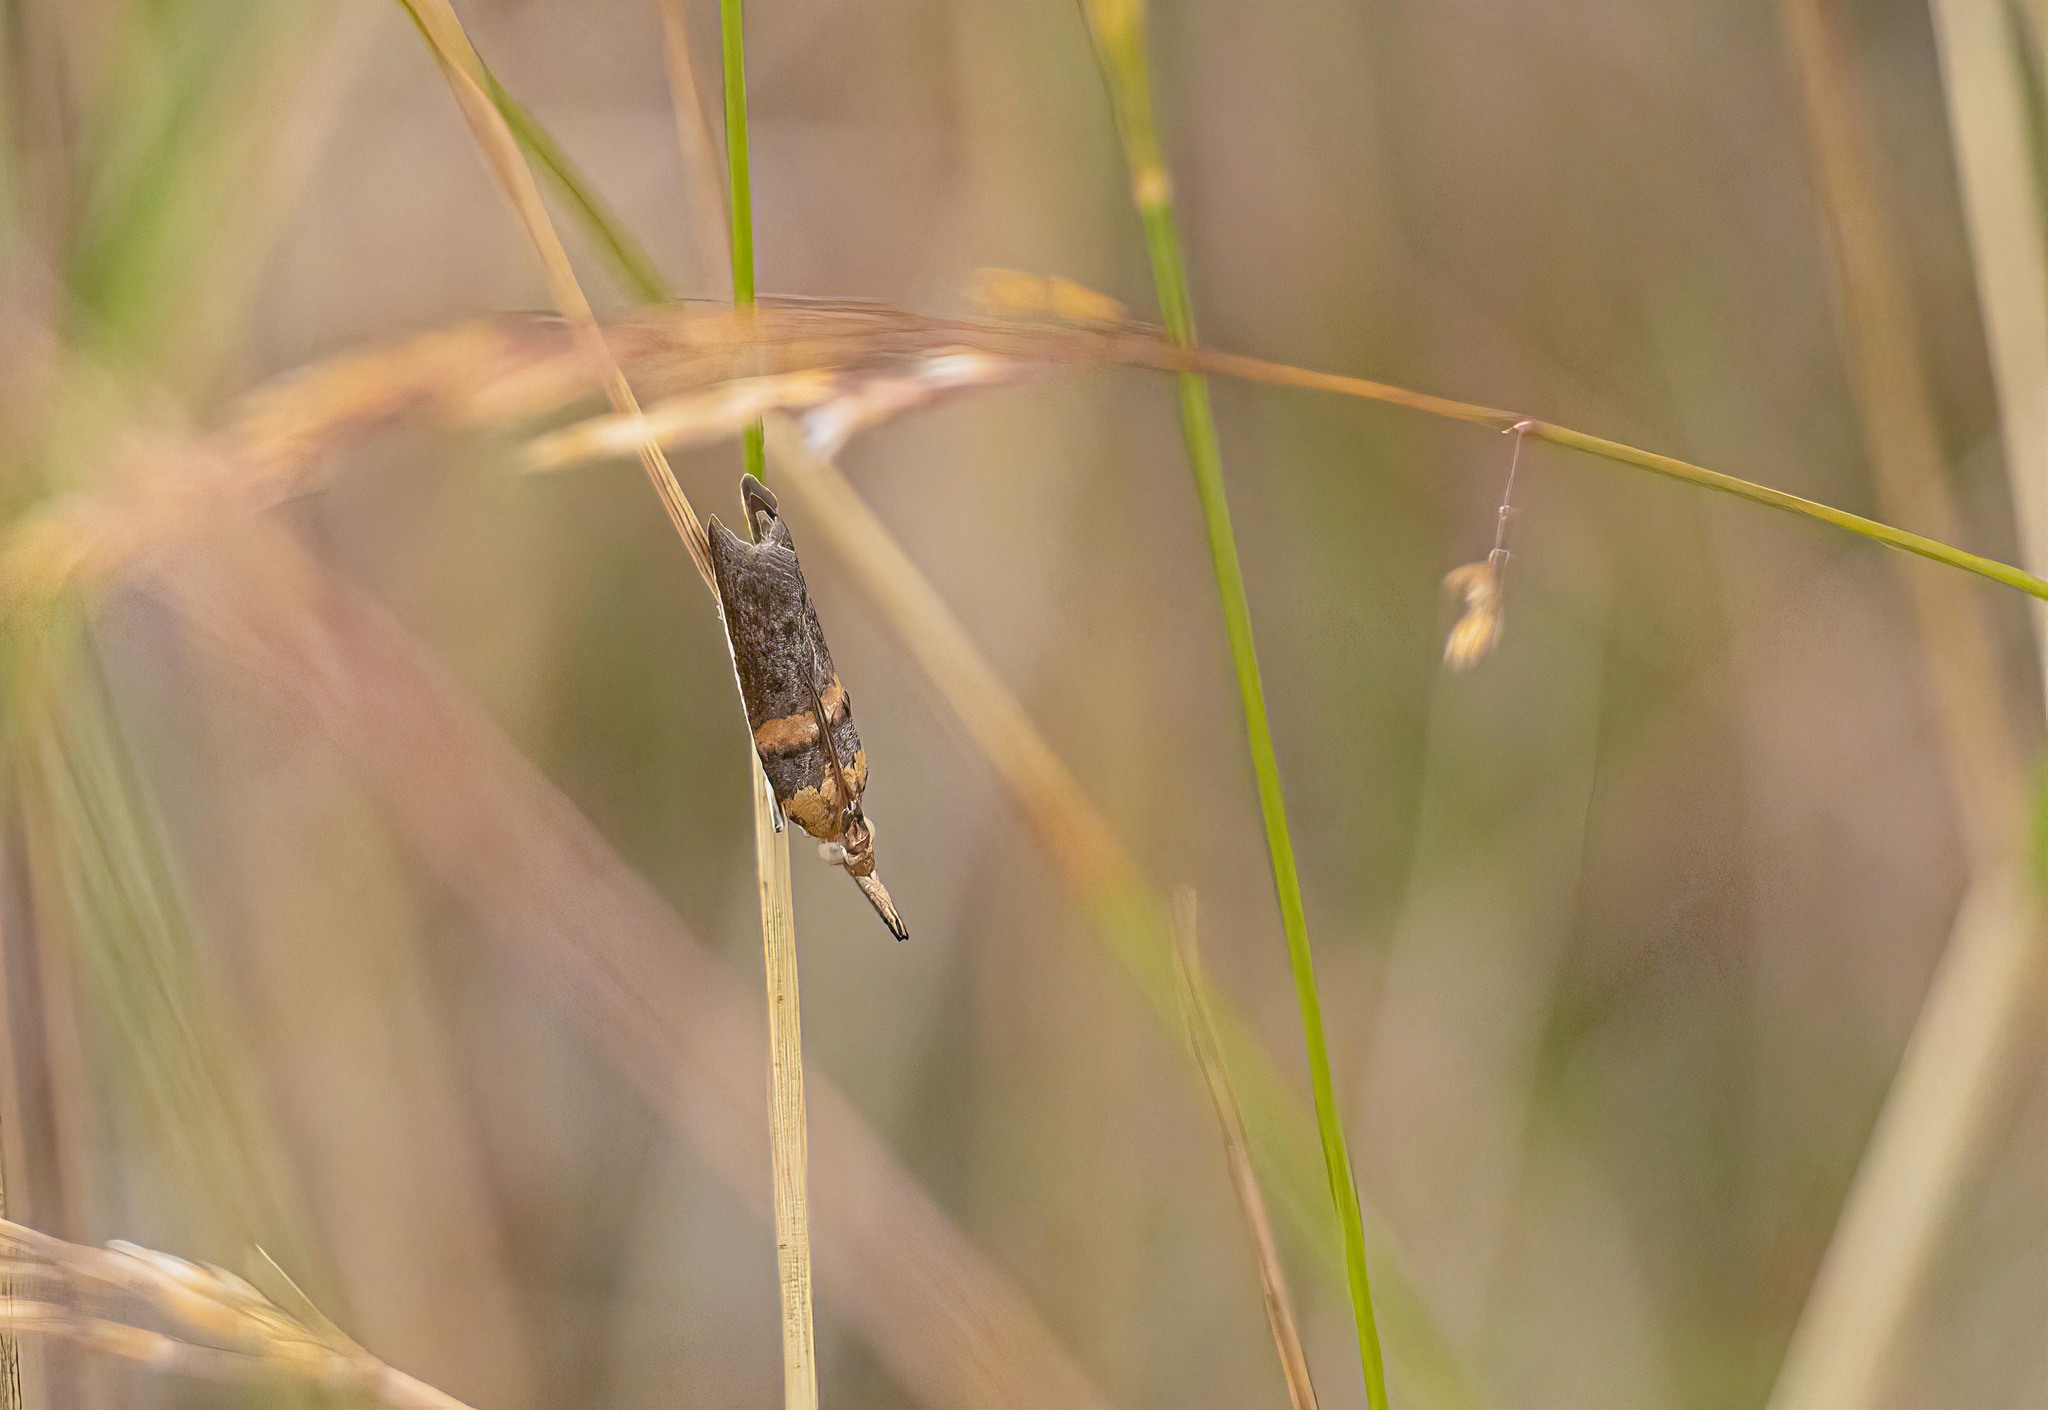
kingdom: Animalia
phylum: Arthropoda
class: Insecta
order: Lepidoptera
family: Pyralidae
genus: Etiella
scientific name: Etiella zinckenella
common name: Gold-banded etiella moth
